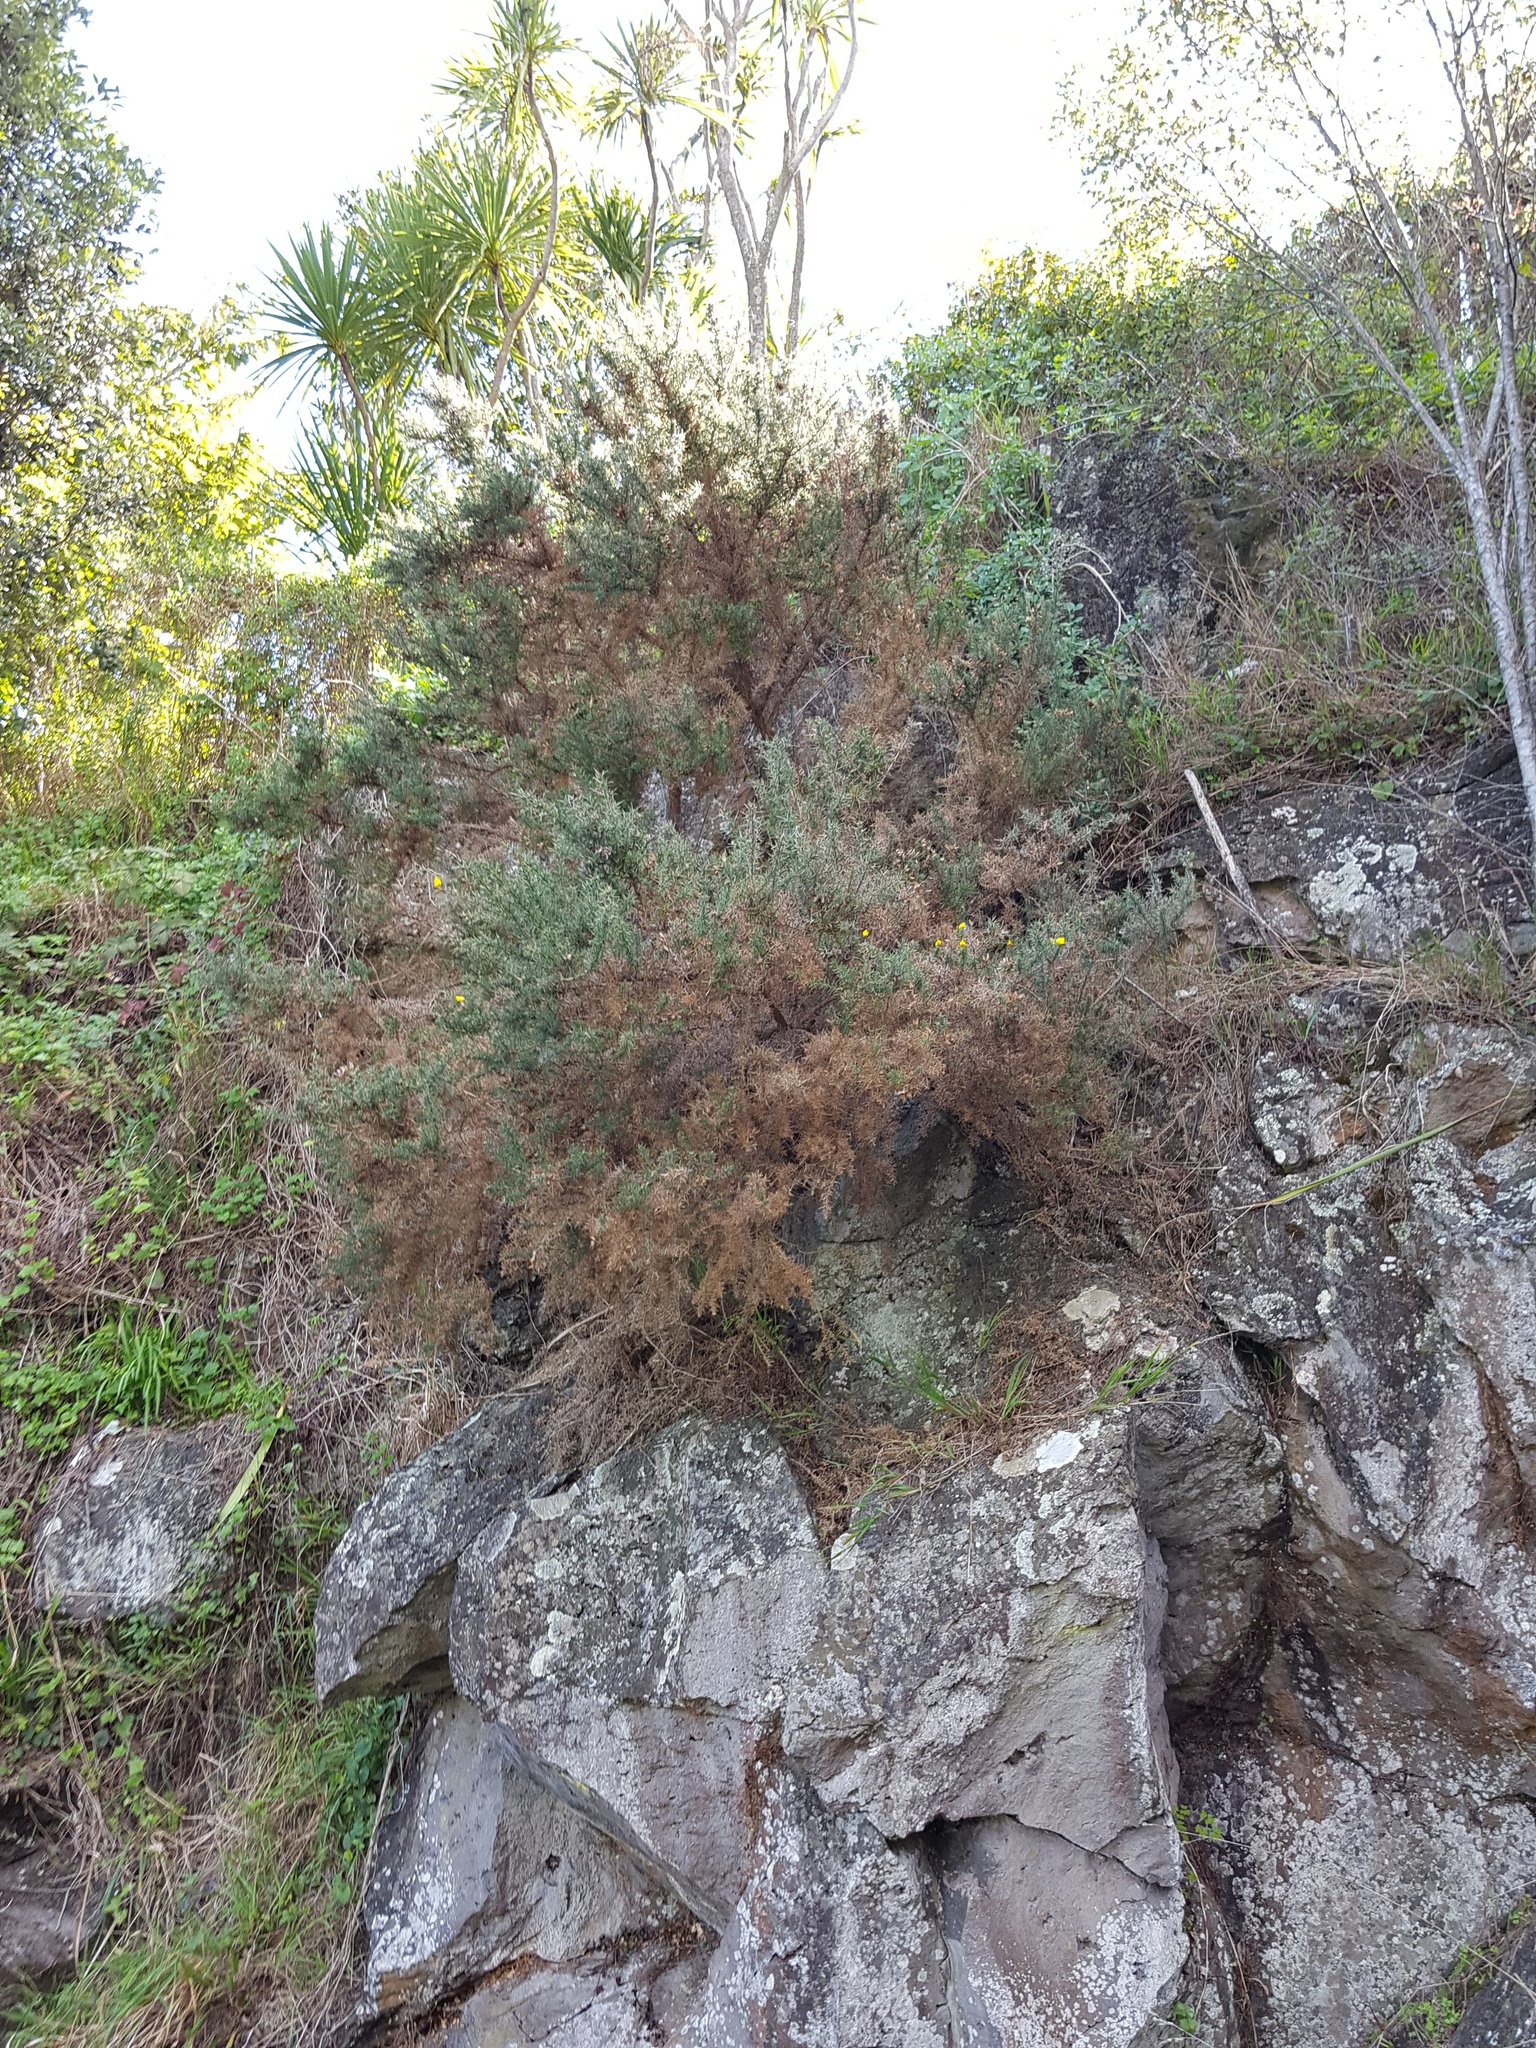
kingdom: Plantae
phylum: Tracheophyta
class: Magnoliopsida
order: Fabales
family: Fabaceae
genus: Ulex
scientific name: Ulex europaeus
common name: Common gorse
